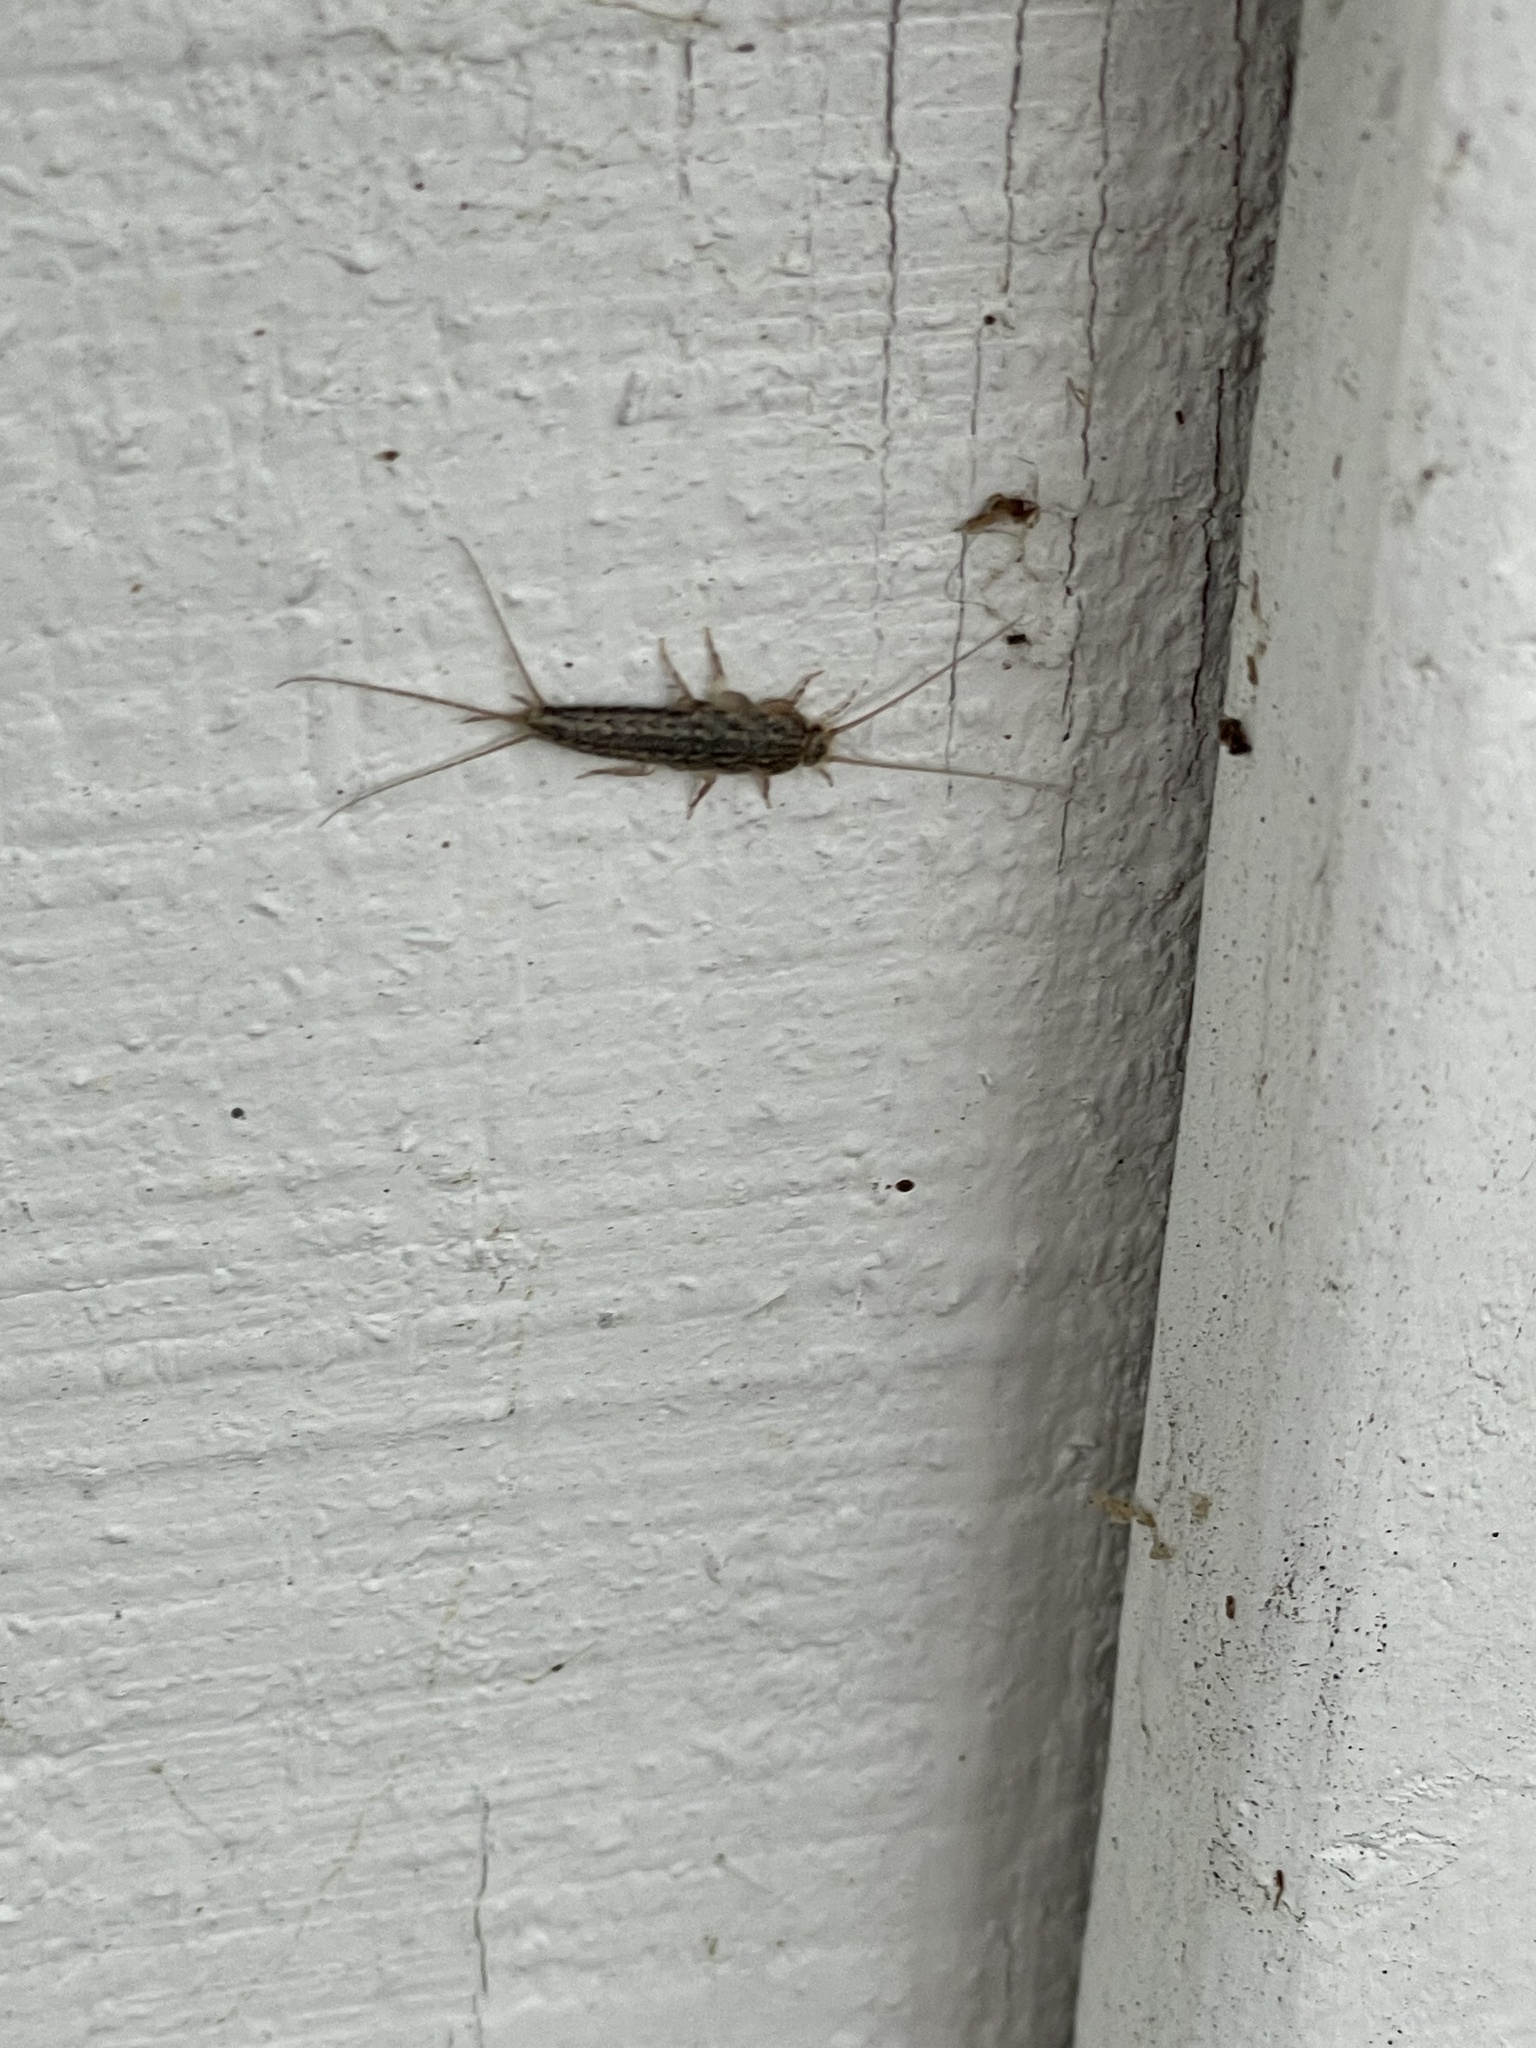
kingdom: Animalia
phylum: Arthropoda
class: Insecta
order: Zygentoma
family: Lepismatidae
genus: Ctenolepisma
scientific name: Ctenolepisma lineata
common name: Four-lined silverfish
